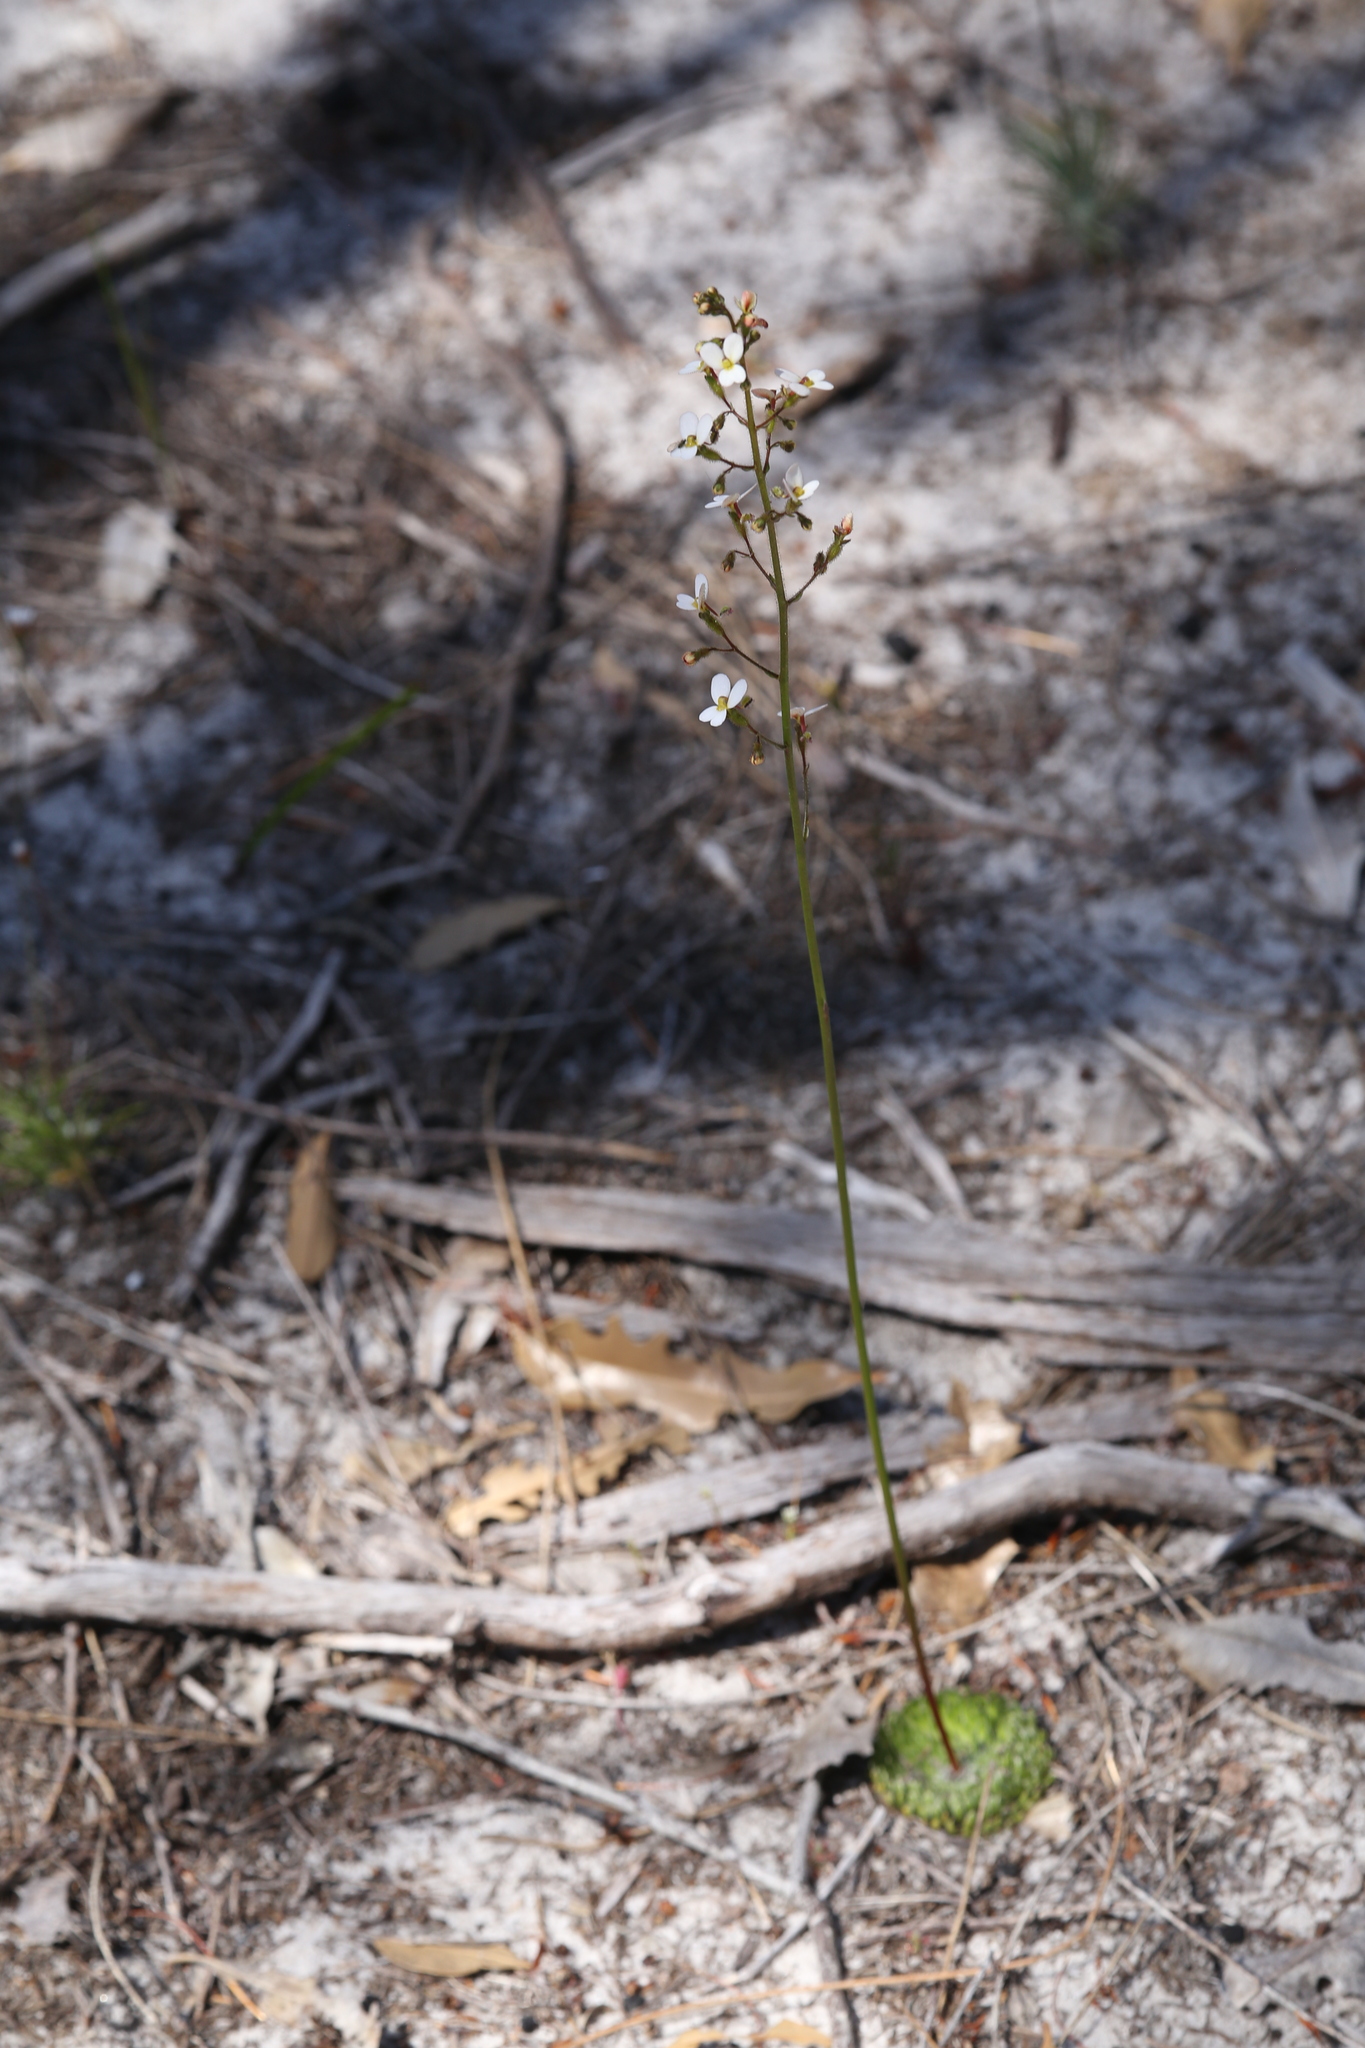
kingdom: Plantae
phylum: Tracheophyta
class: Magnoliopsida
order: Asterales
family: Stylidiaceae
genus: Stylidium
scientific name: Stylidium piliferum
